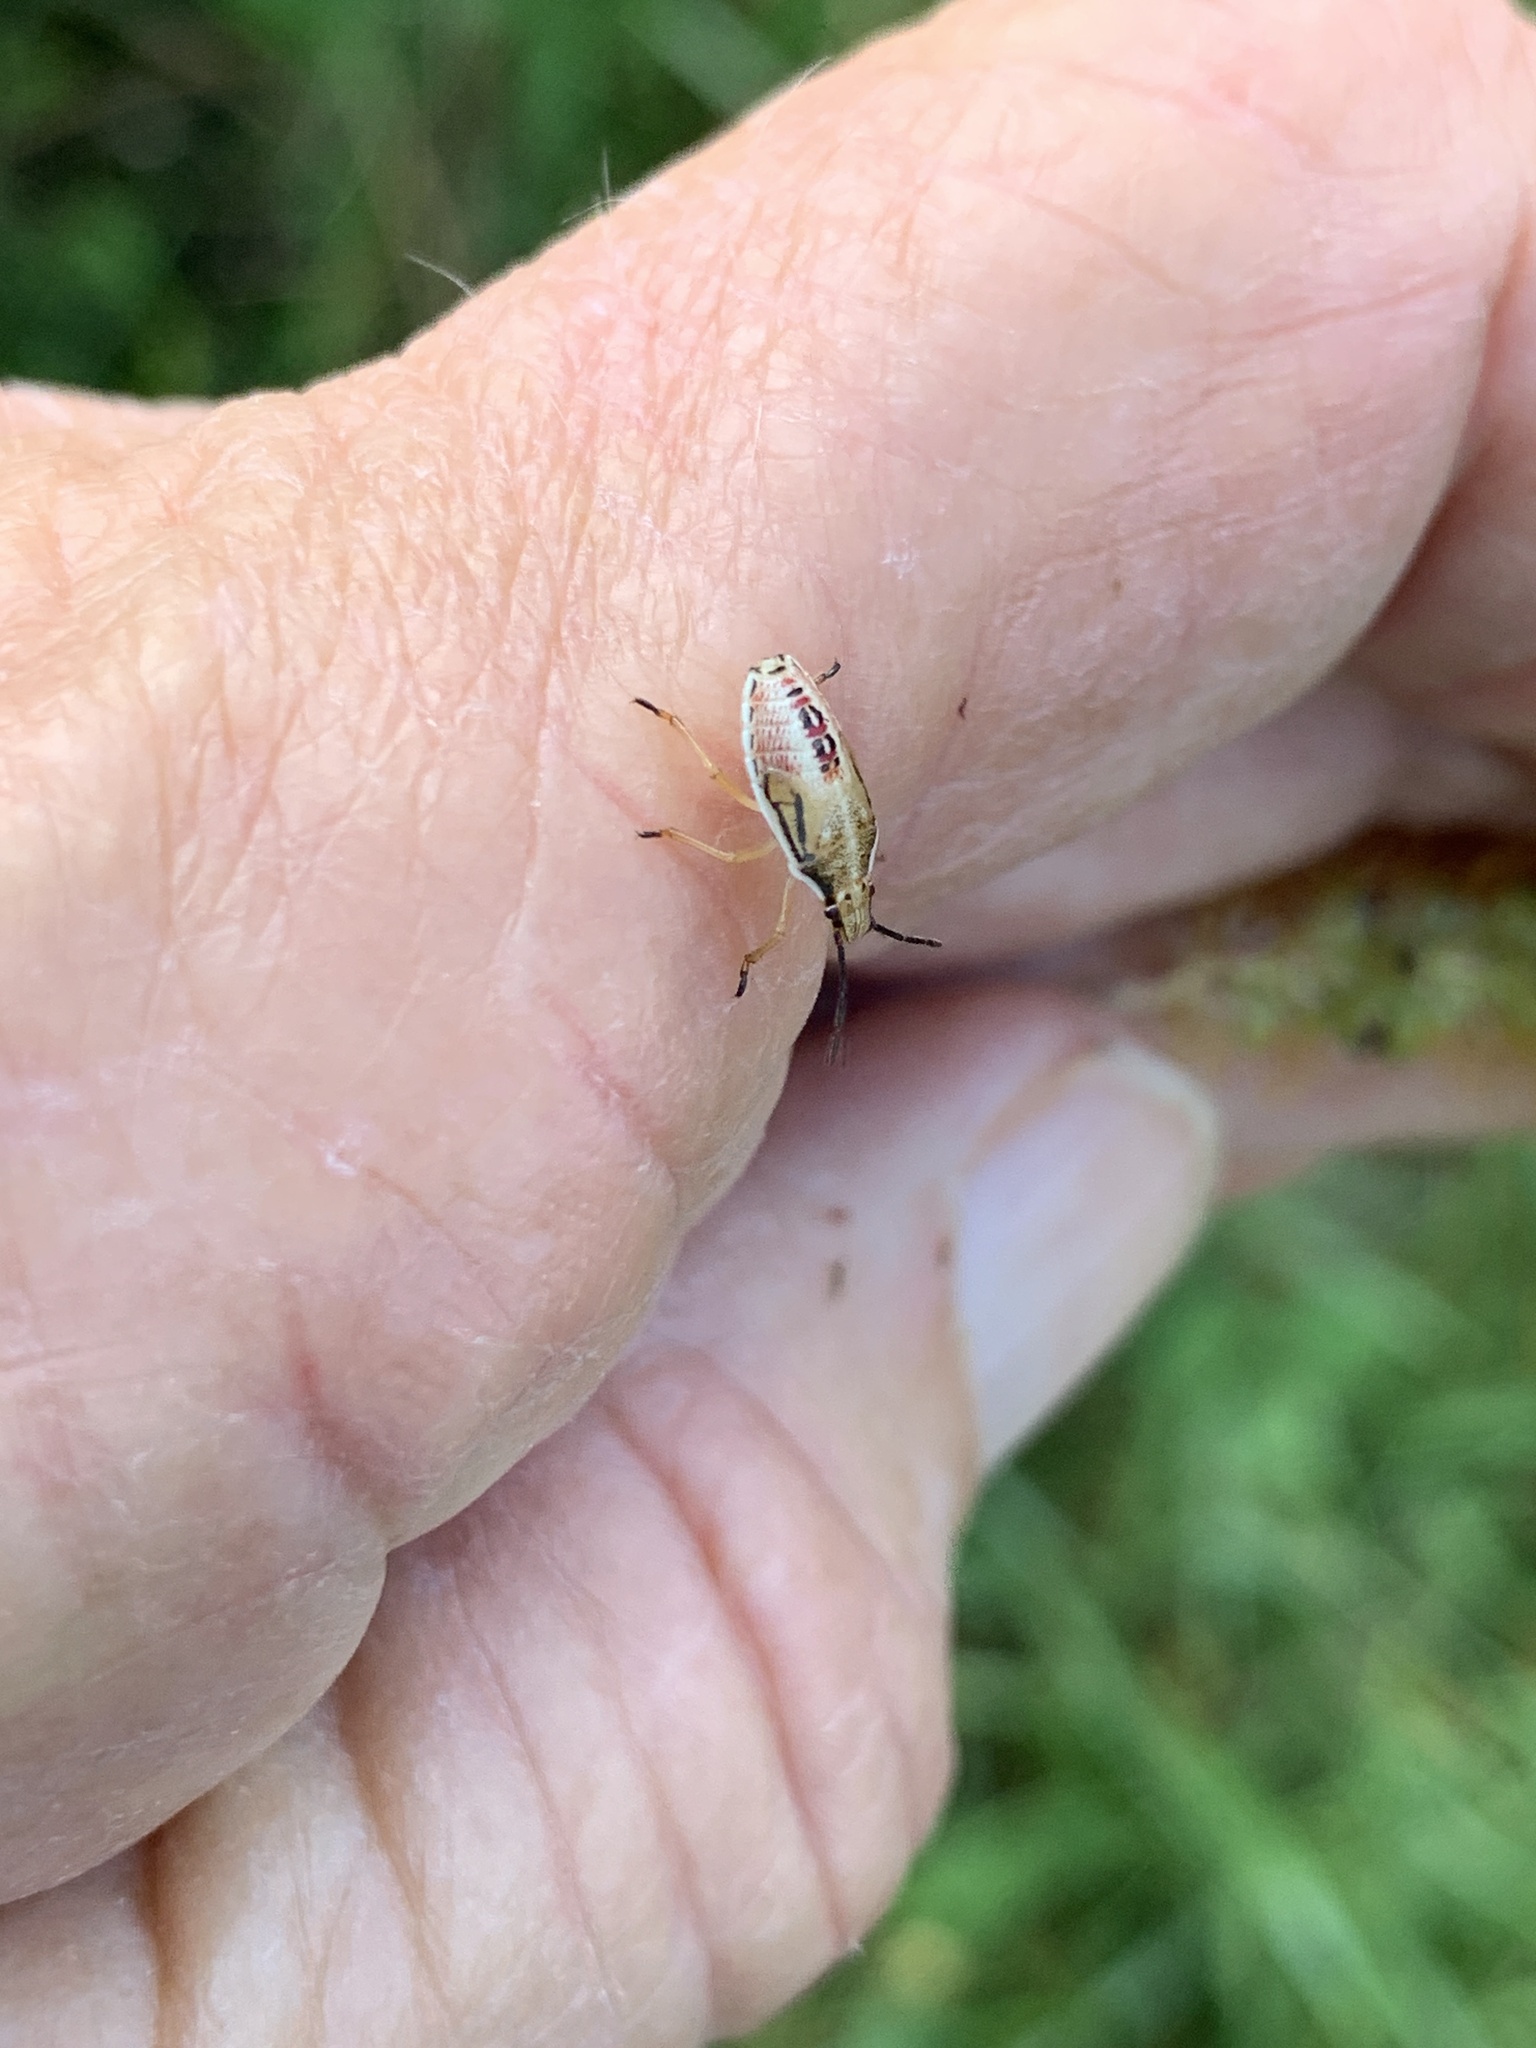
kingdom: Animalia
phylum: Arthropoda
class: Insecta
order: Hemiptera
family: Pentatomidae
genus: Oebalus
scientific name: Oebalus pugnax
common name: Rice stink bug
